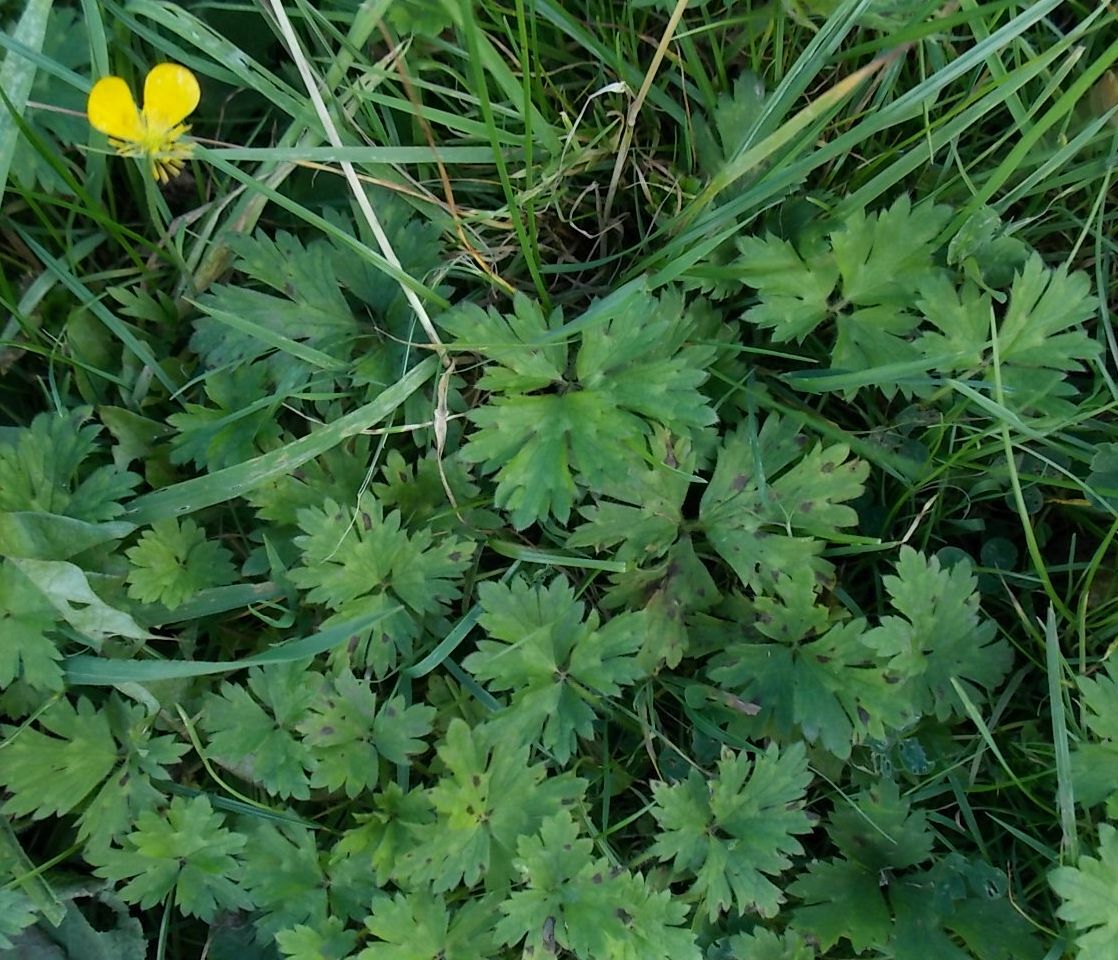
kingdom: Plantae
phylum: Tracheophyta
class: Magnoliopsida
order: Ranunculales
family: Ranunculaceae
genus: Ranunculus
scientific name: Ranunculus repens
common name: Creeping buttercup
